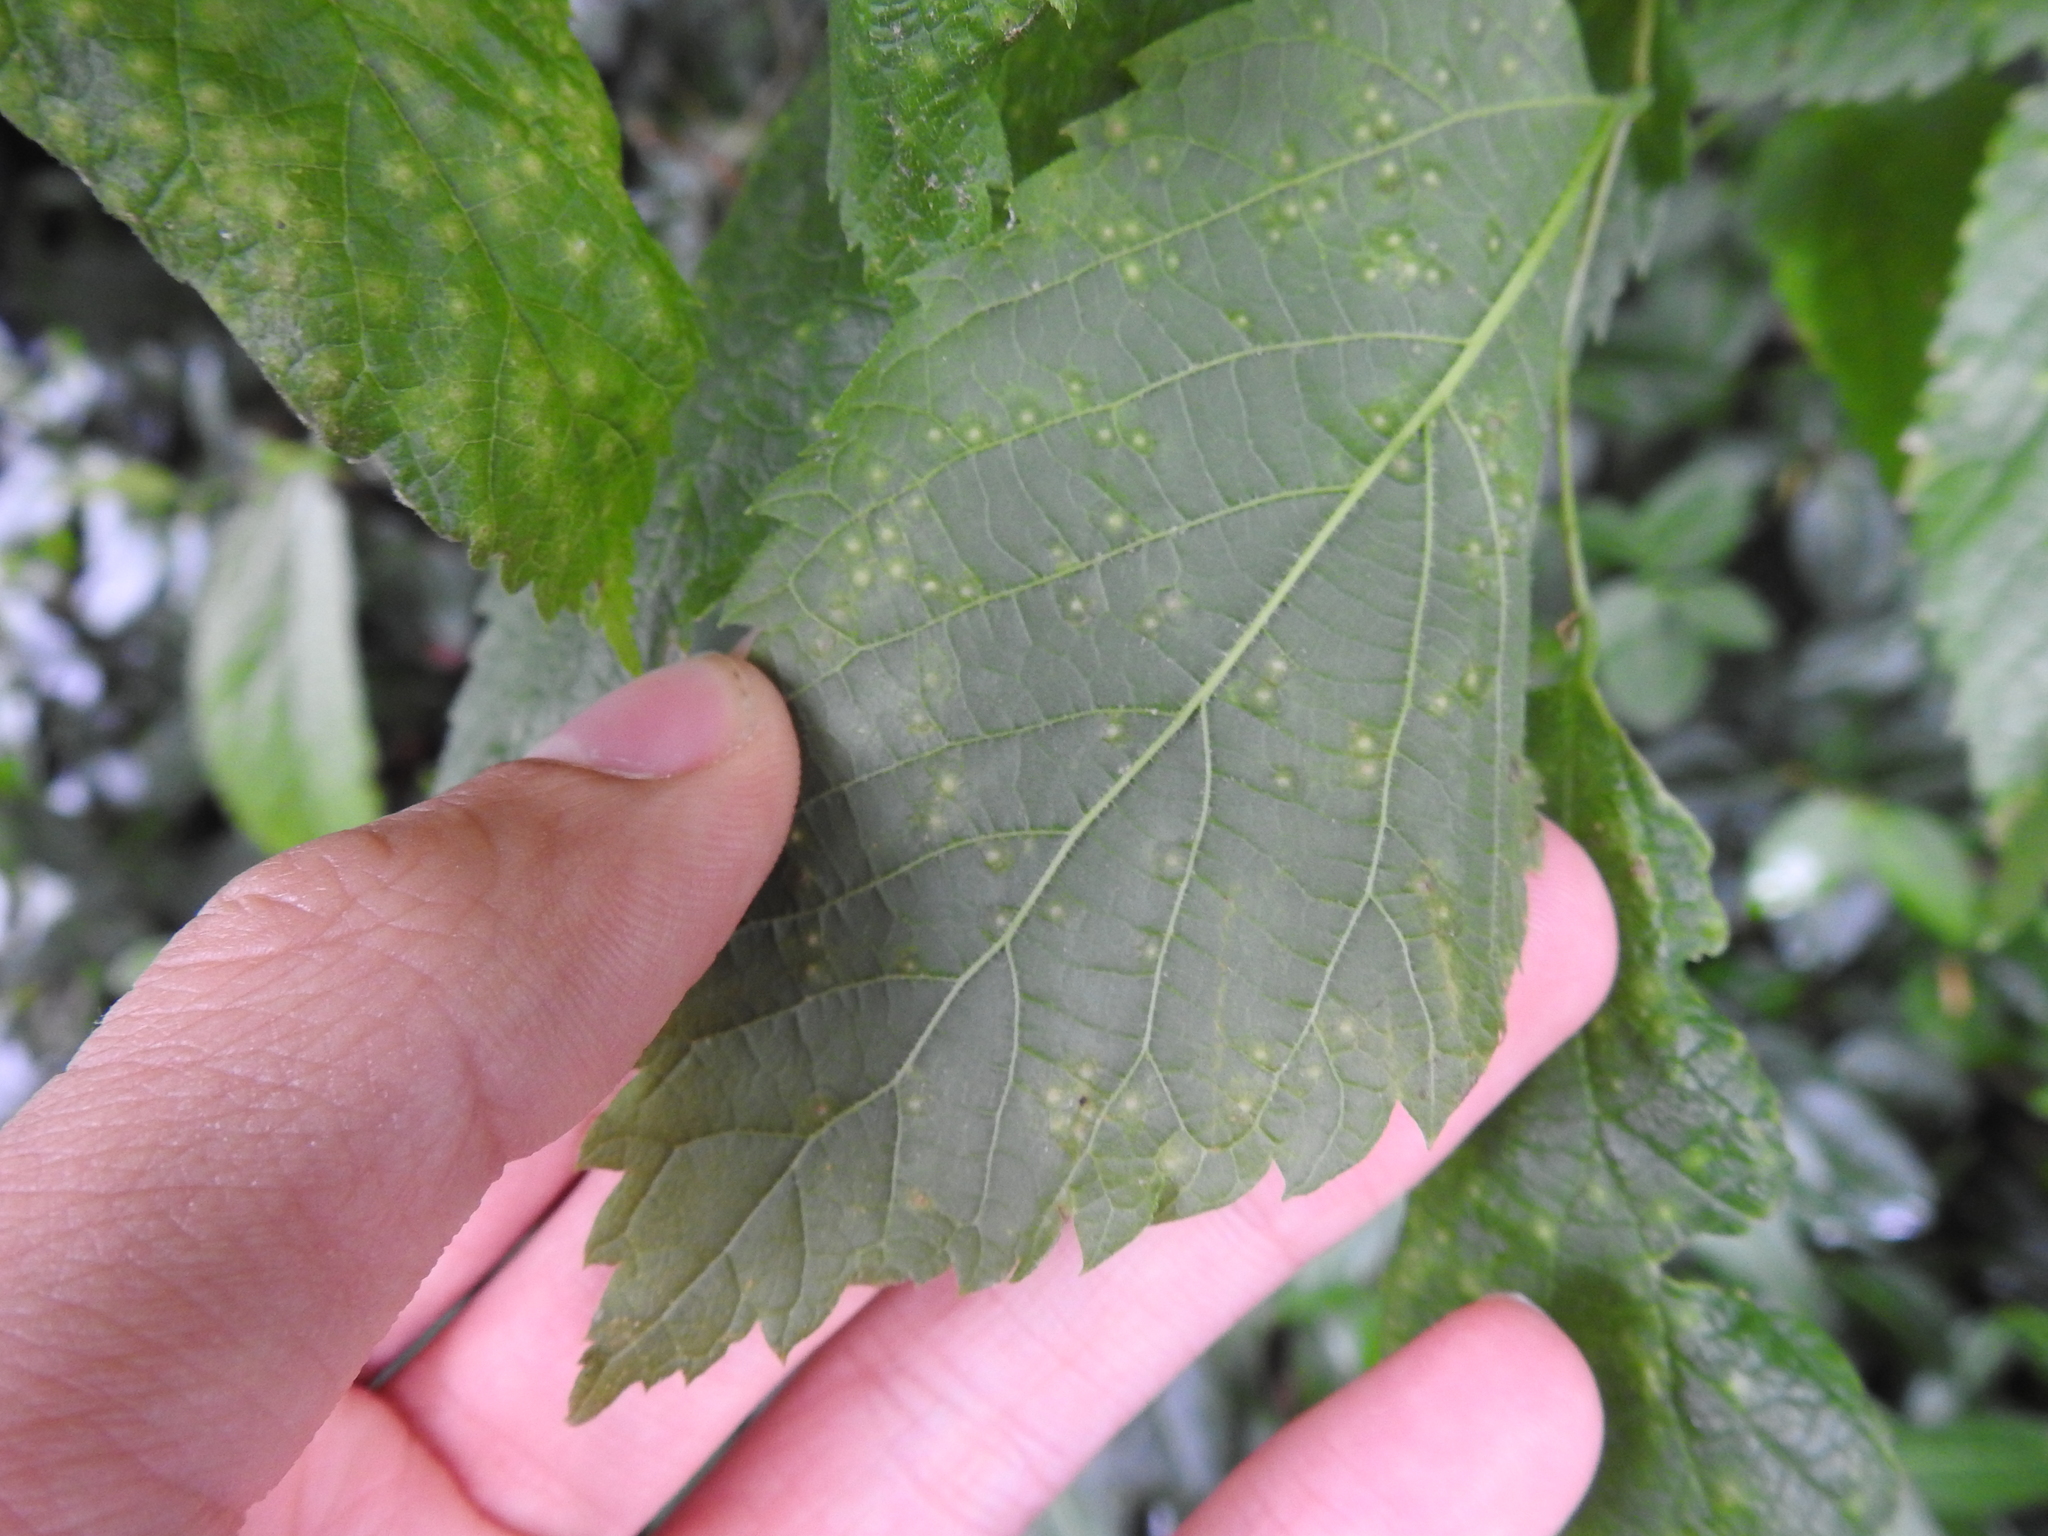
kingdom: Animalia
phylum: Arthropoda
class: Insecta
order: Hemiptera
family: Aphalaridae
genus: Pachypsylla
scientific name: Pachypsylla celtidisvesicula
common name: Hackberry blister gall psyllid
